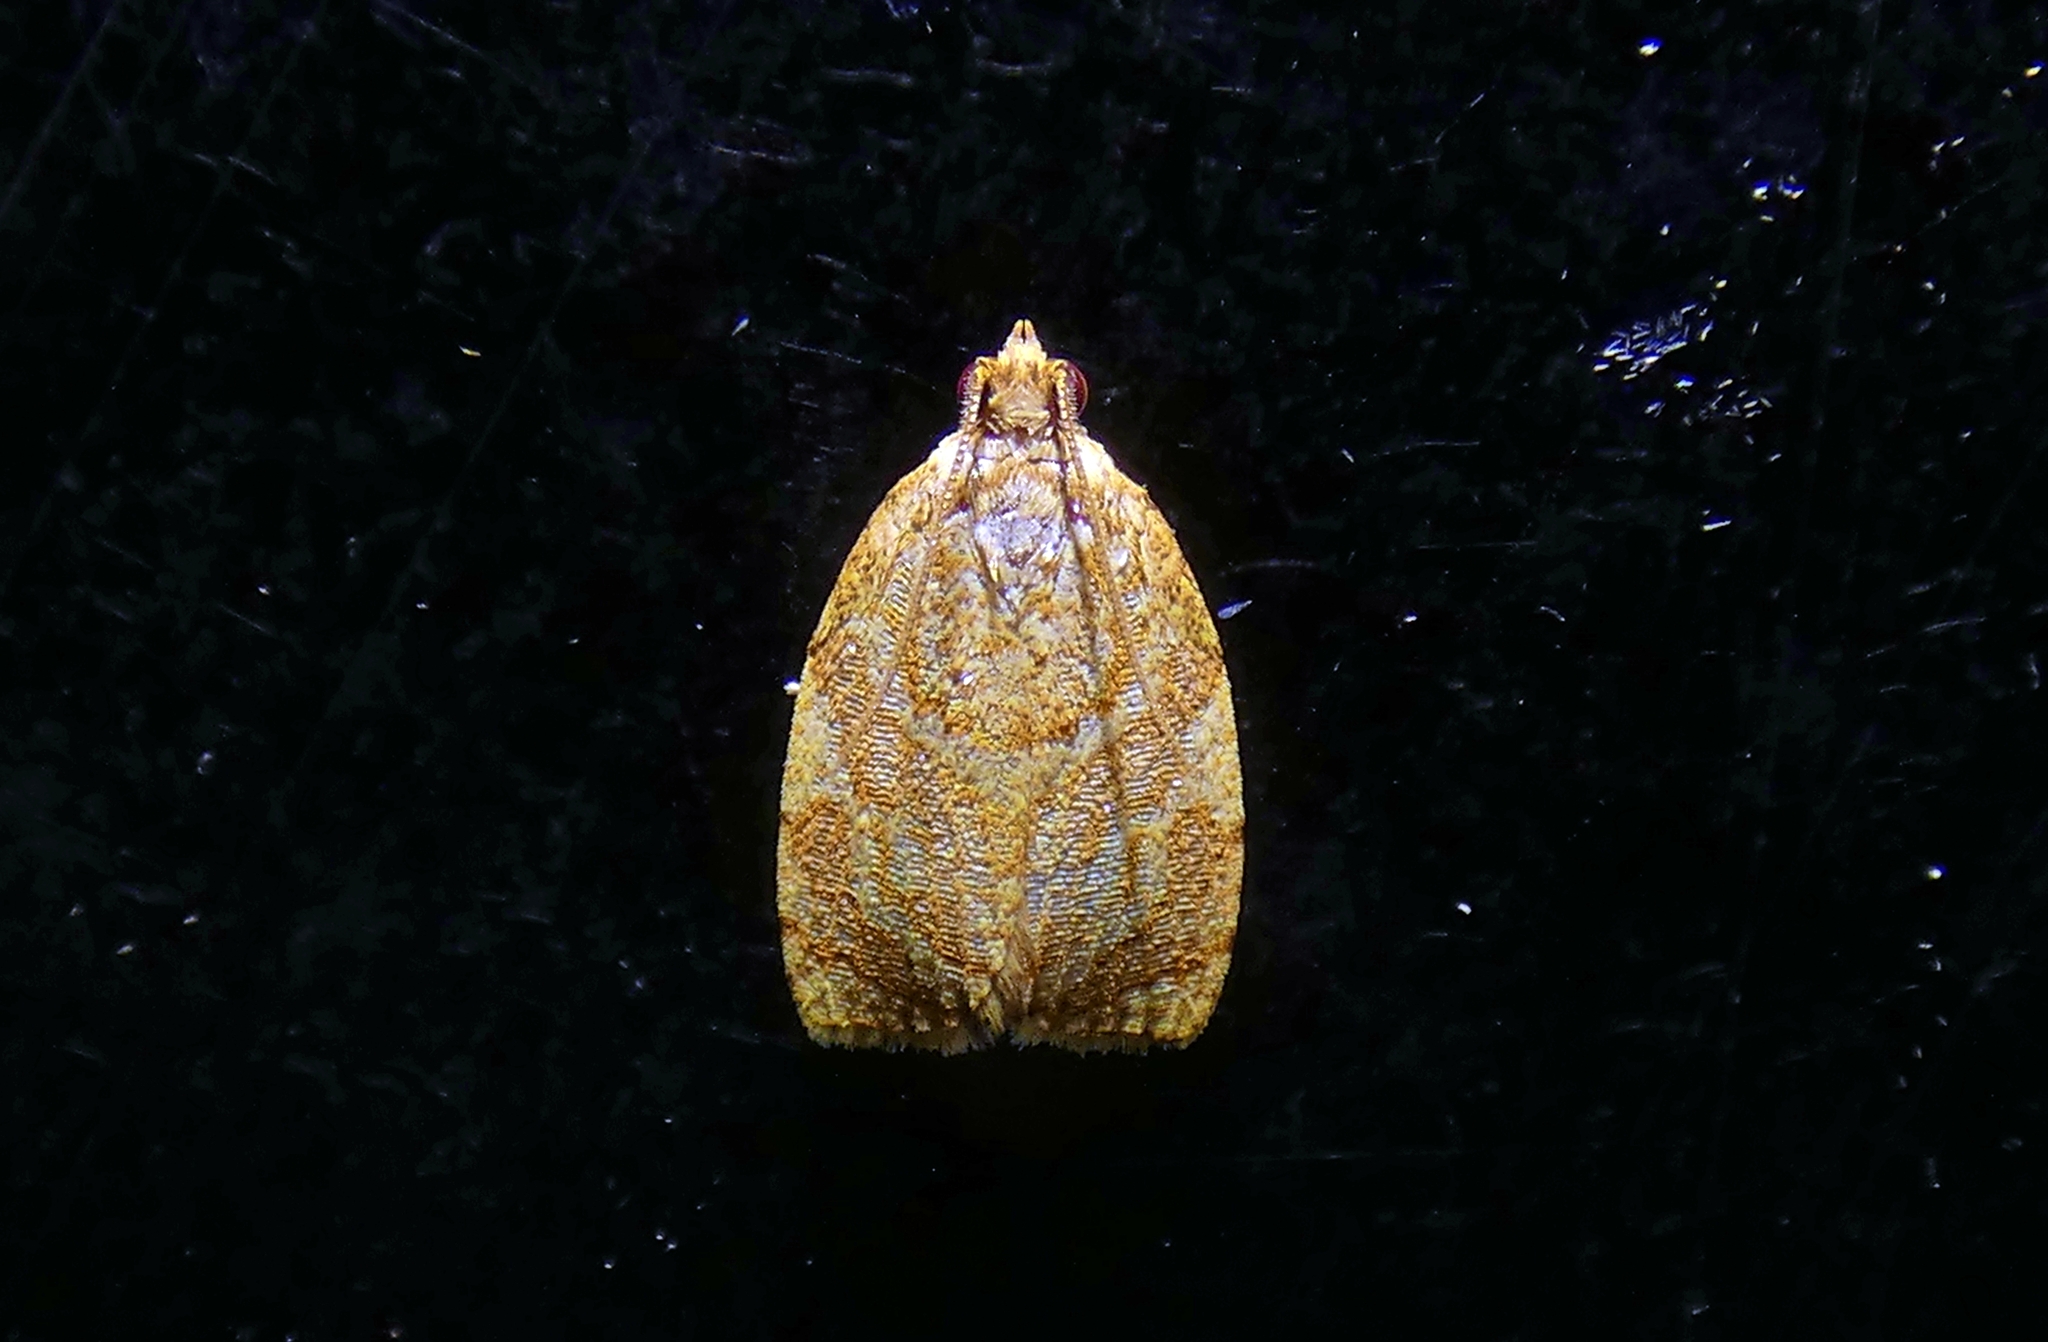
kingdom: Animalia
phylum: Arthropoda
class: Insecta
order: Lepidoptera
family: Tortricidae
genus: Adoxophyes
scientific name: Adoxophyes templana
